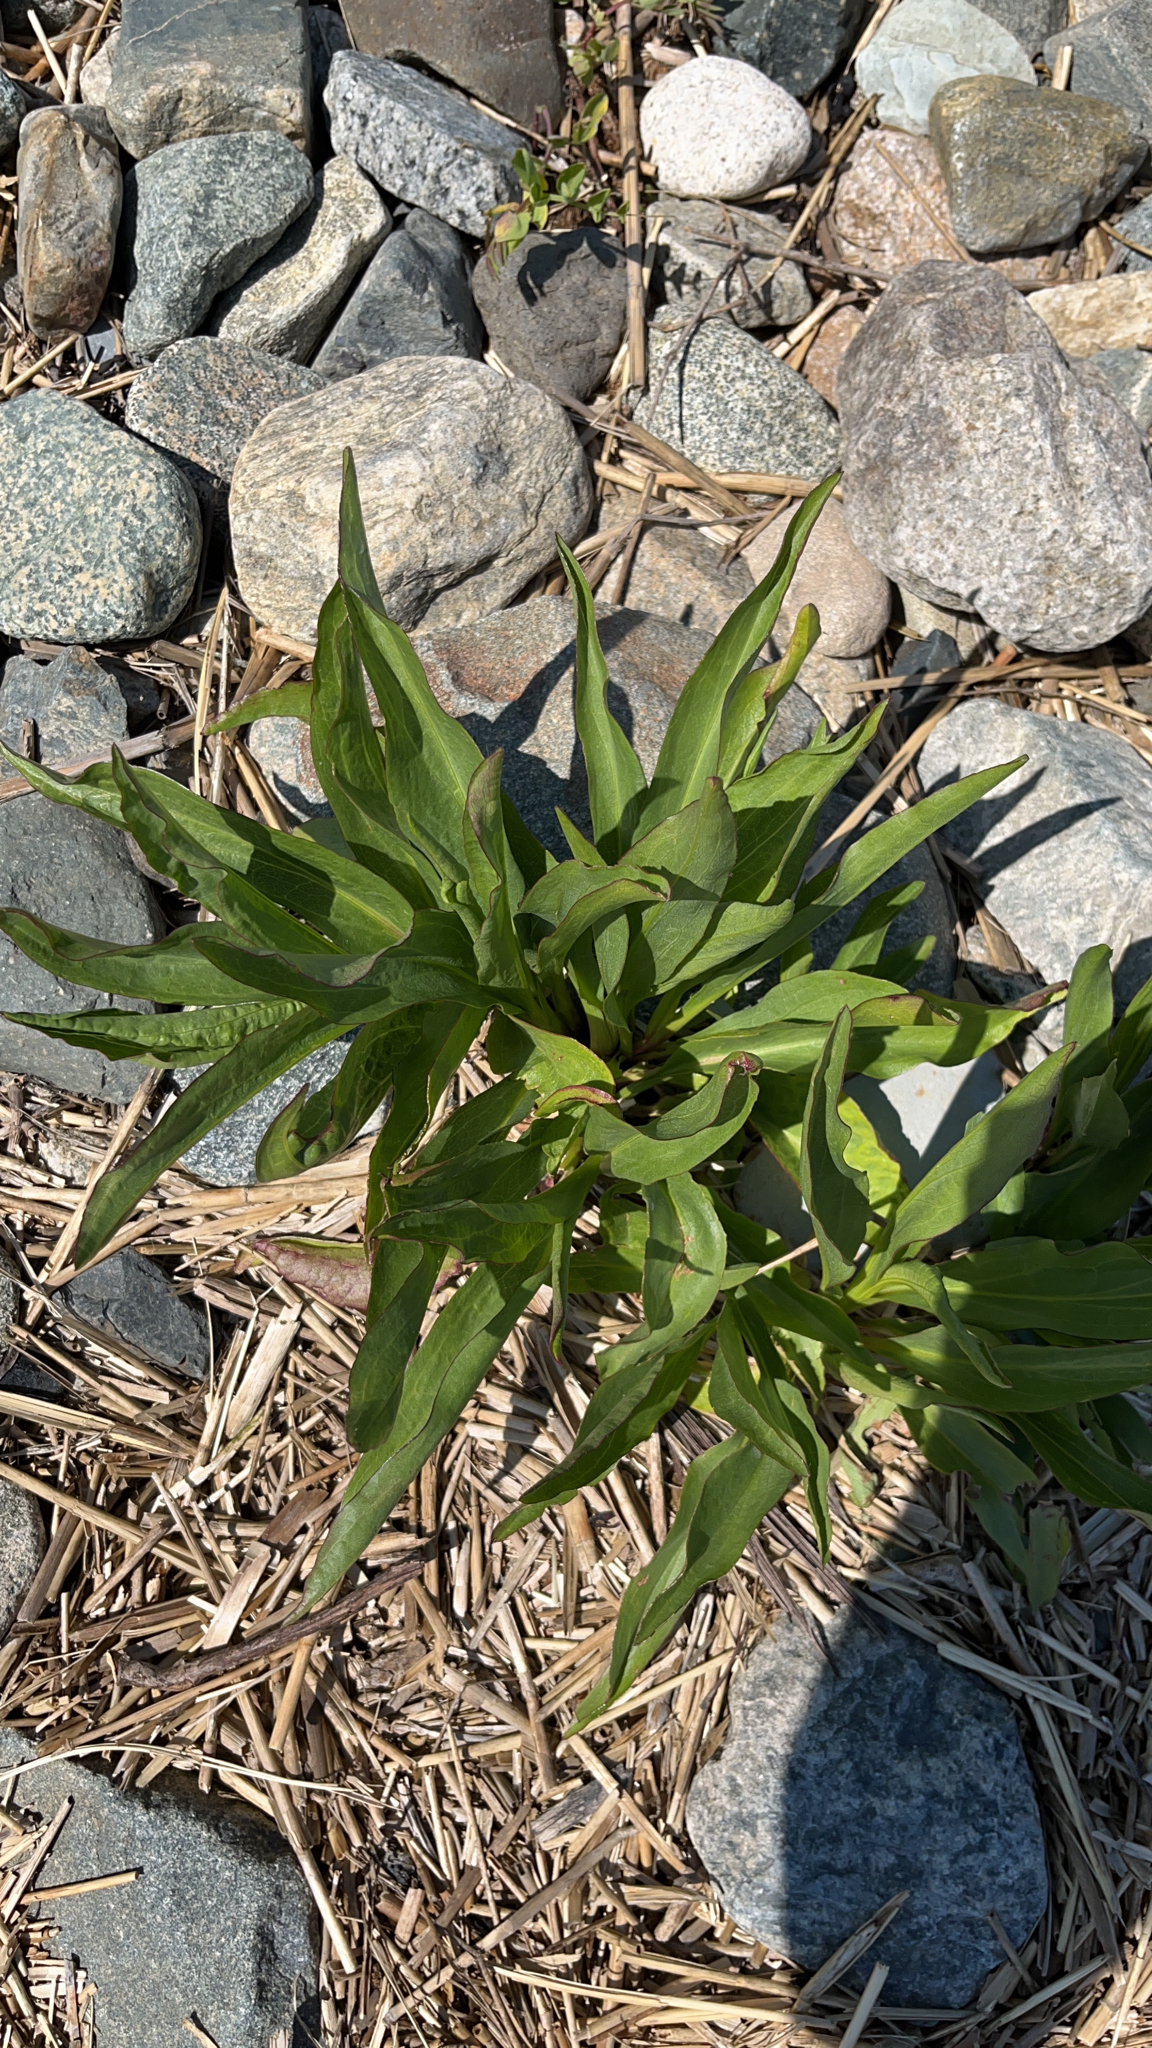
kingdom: Plantae
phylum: Tracheophyta
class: Magnoliopsida
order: Asterales
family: Asteraceae
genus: Solidago
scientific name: Solidago sempervirens
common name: Salt-marsh goldenrod
